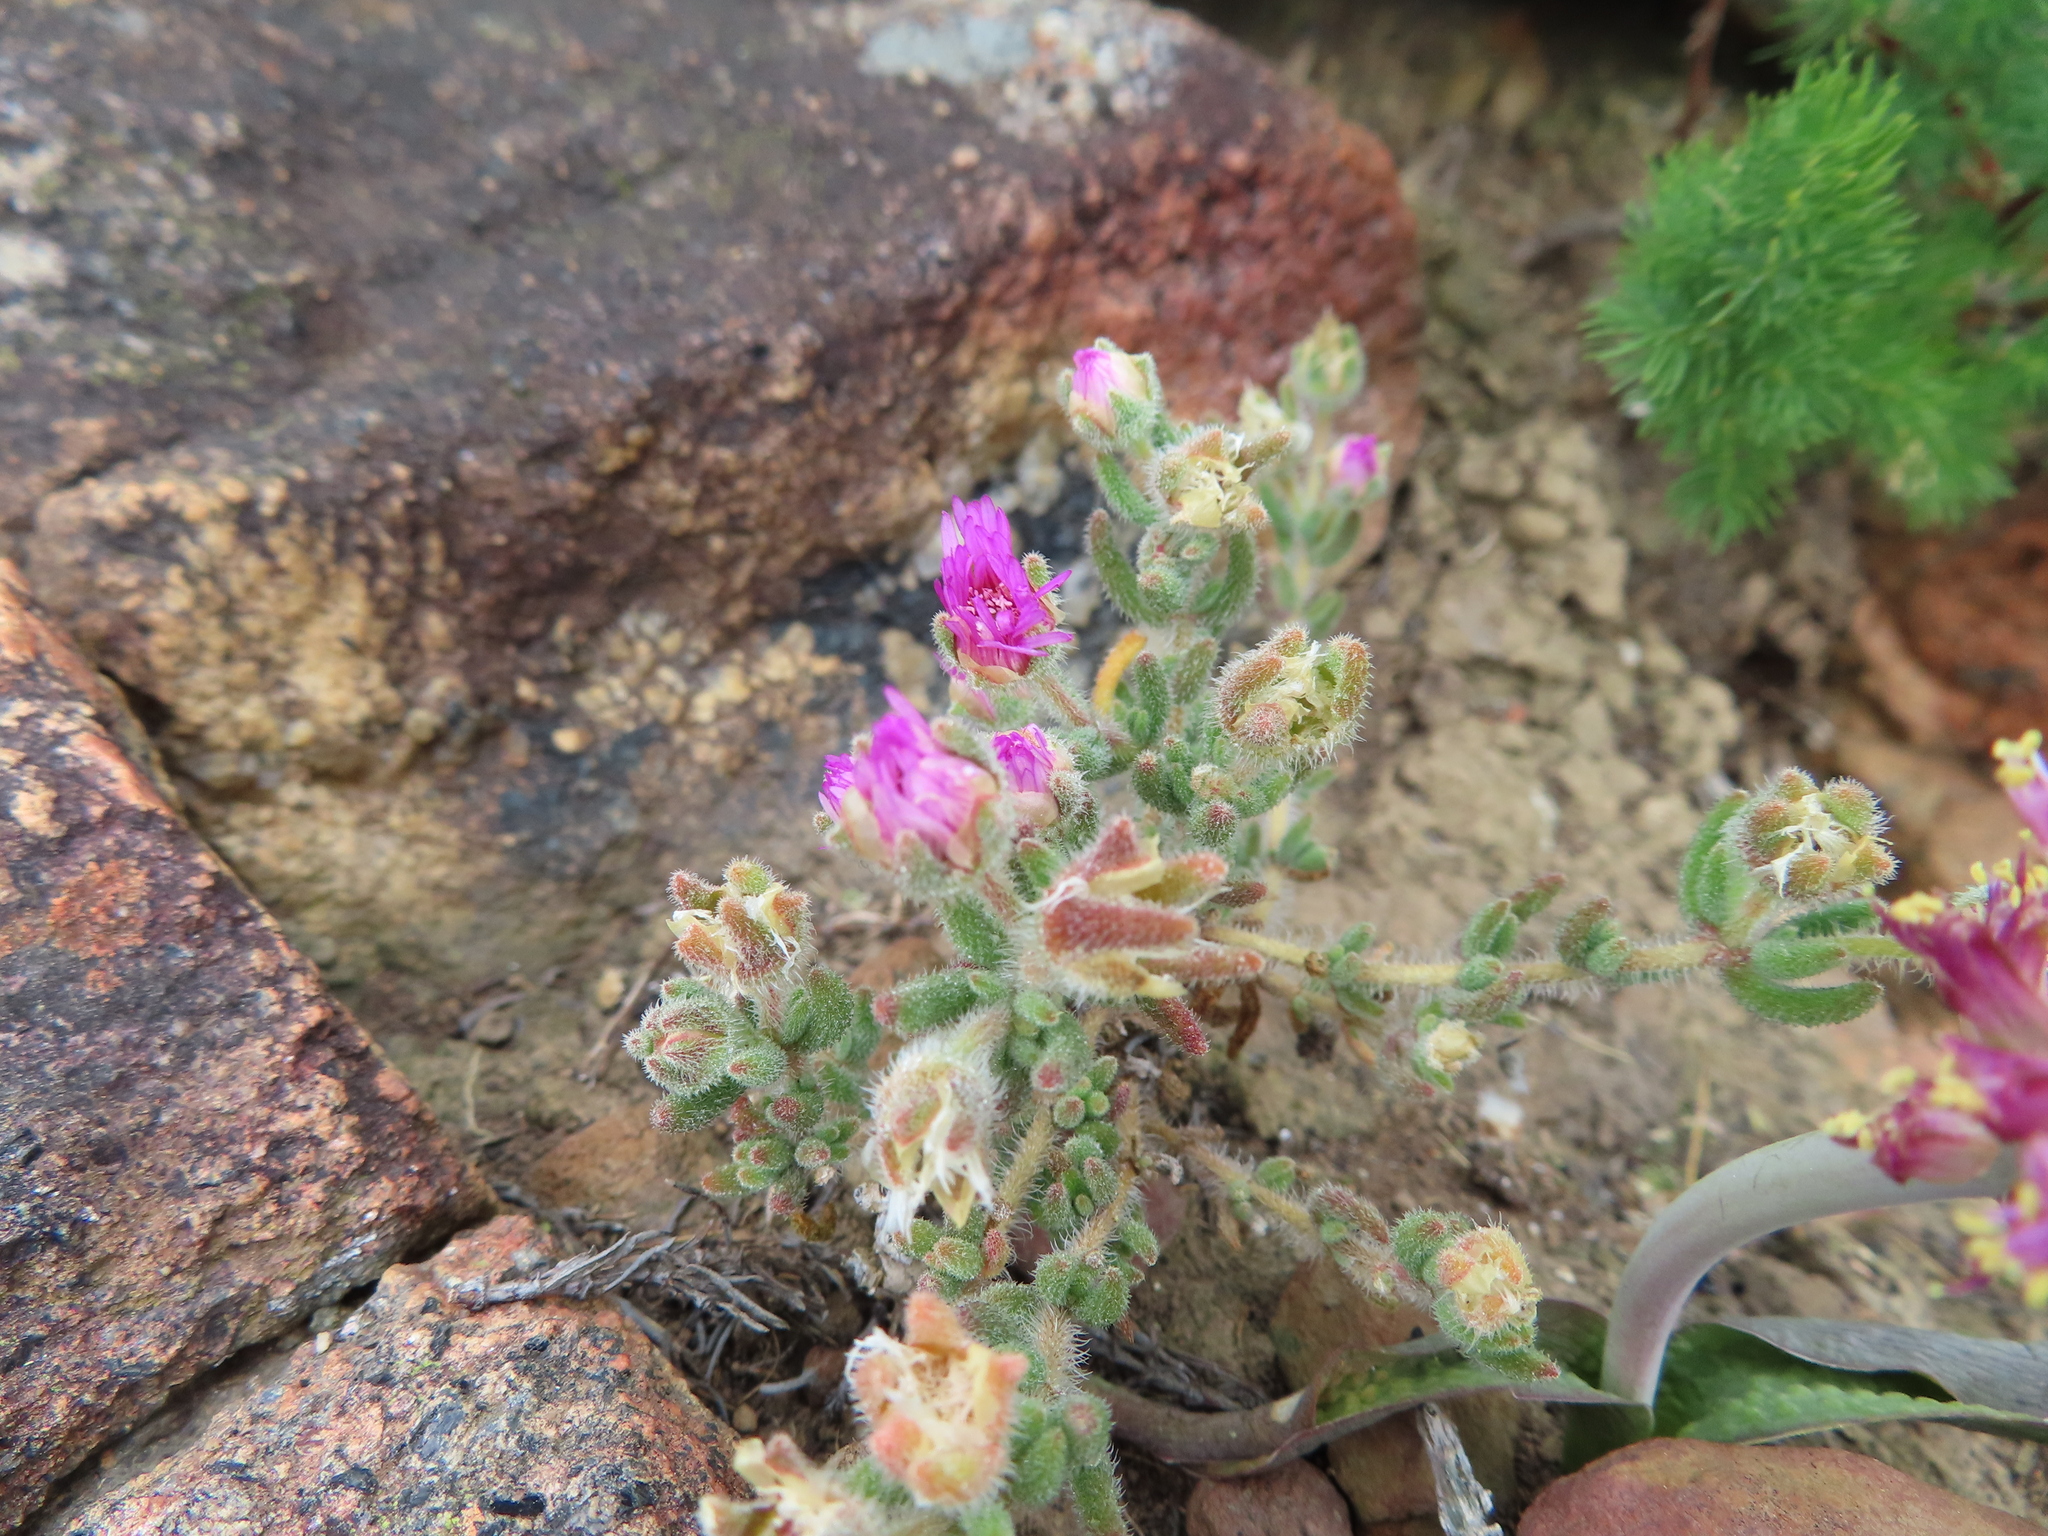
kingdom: Plantae
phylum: Tracheophyta
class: Magnoliopsida
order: Caryophyllales
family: Aizoaceae
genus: Drosanthemum
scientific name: Drosanthemum hispifolium
